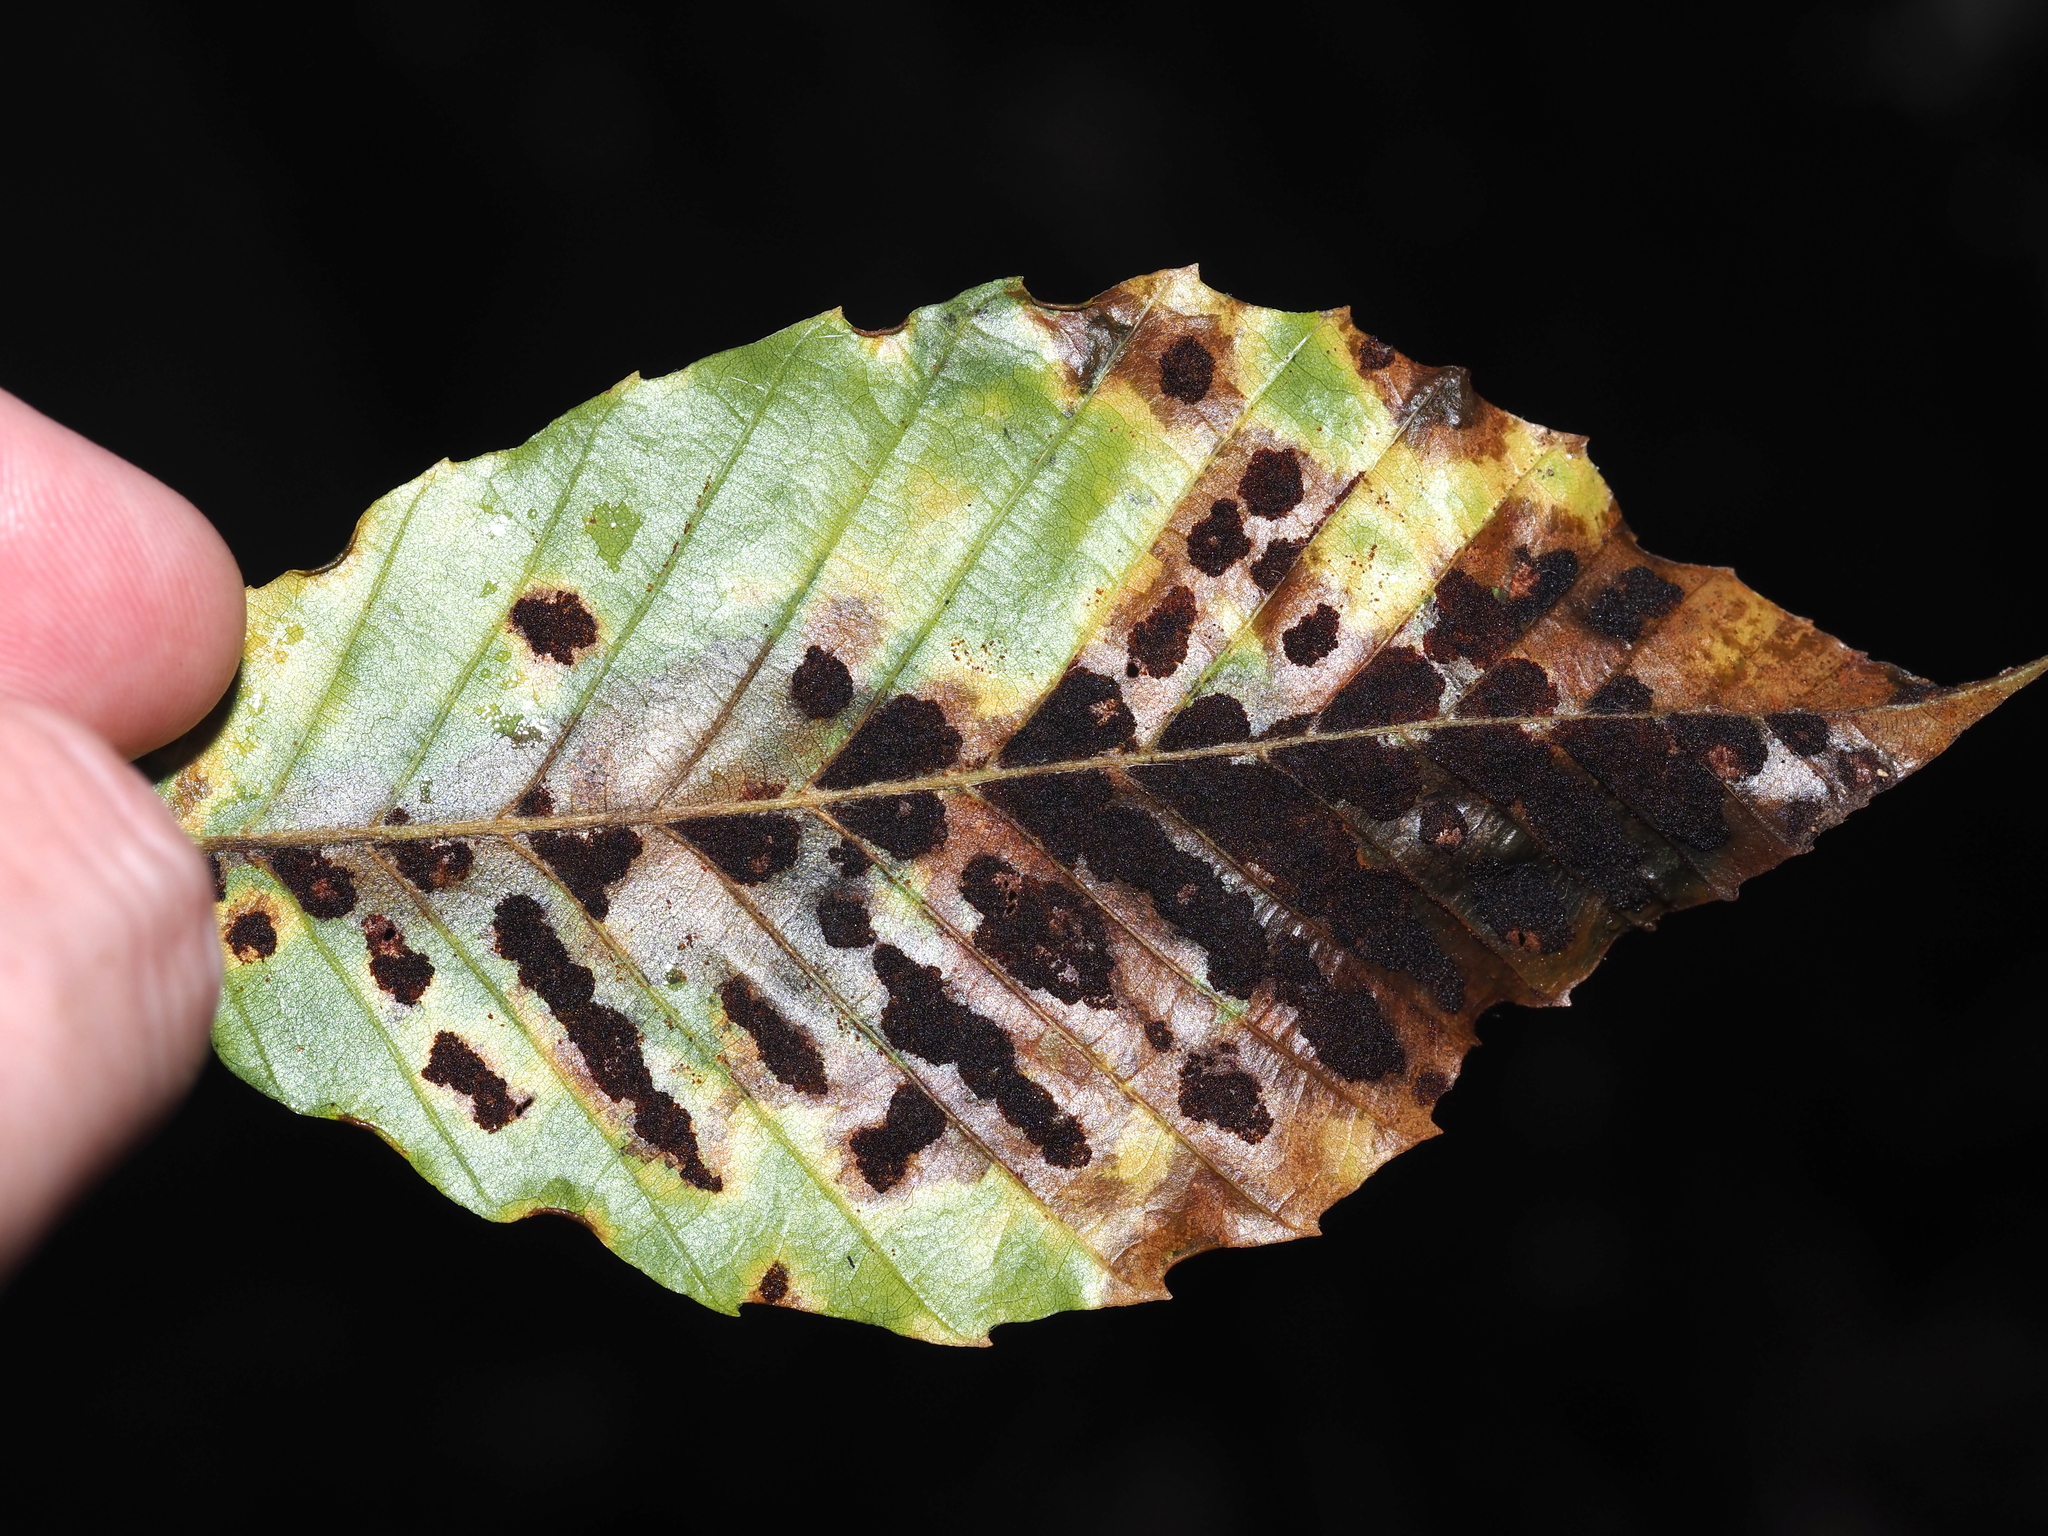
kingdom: Animalia
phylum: Arthropoda
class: Arachnida
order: Trombidiformes
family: Eriophyidae
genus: Acalitus
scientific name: Acalitus
